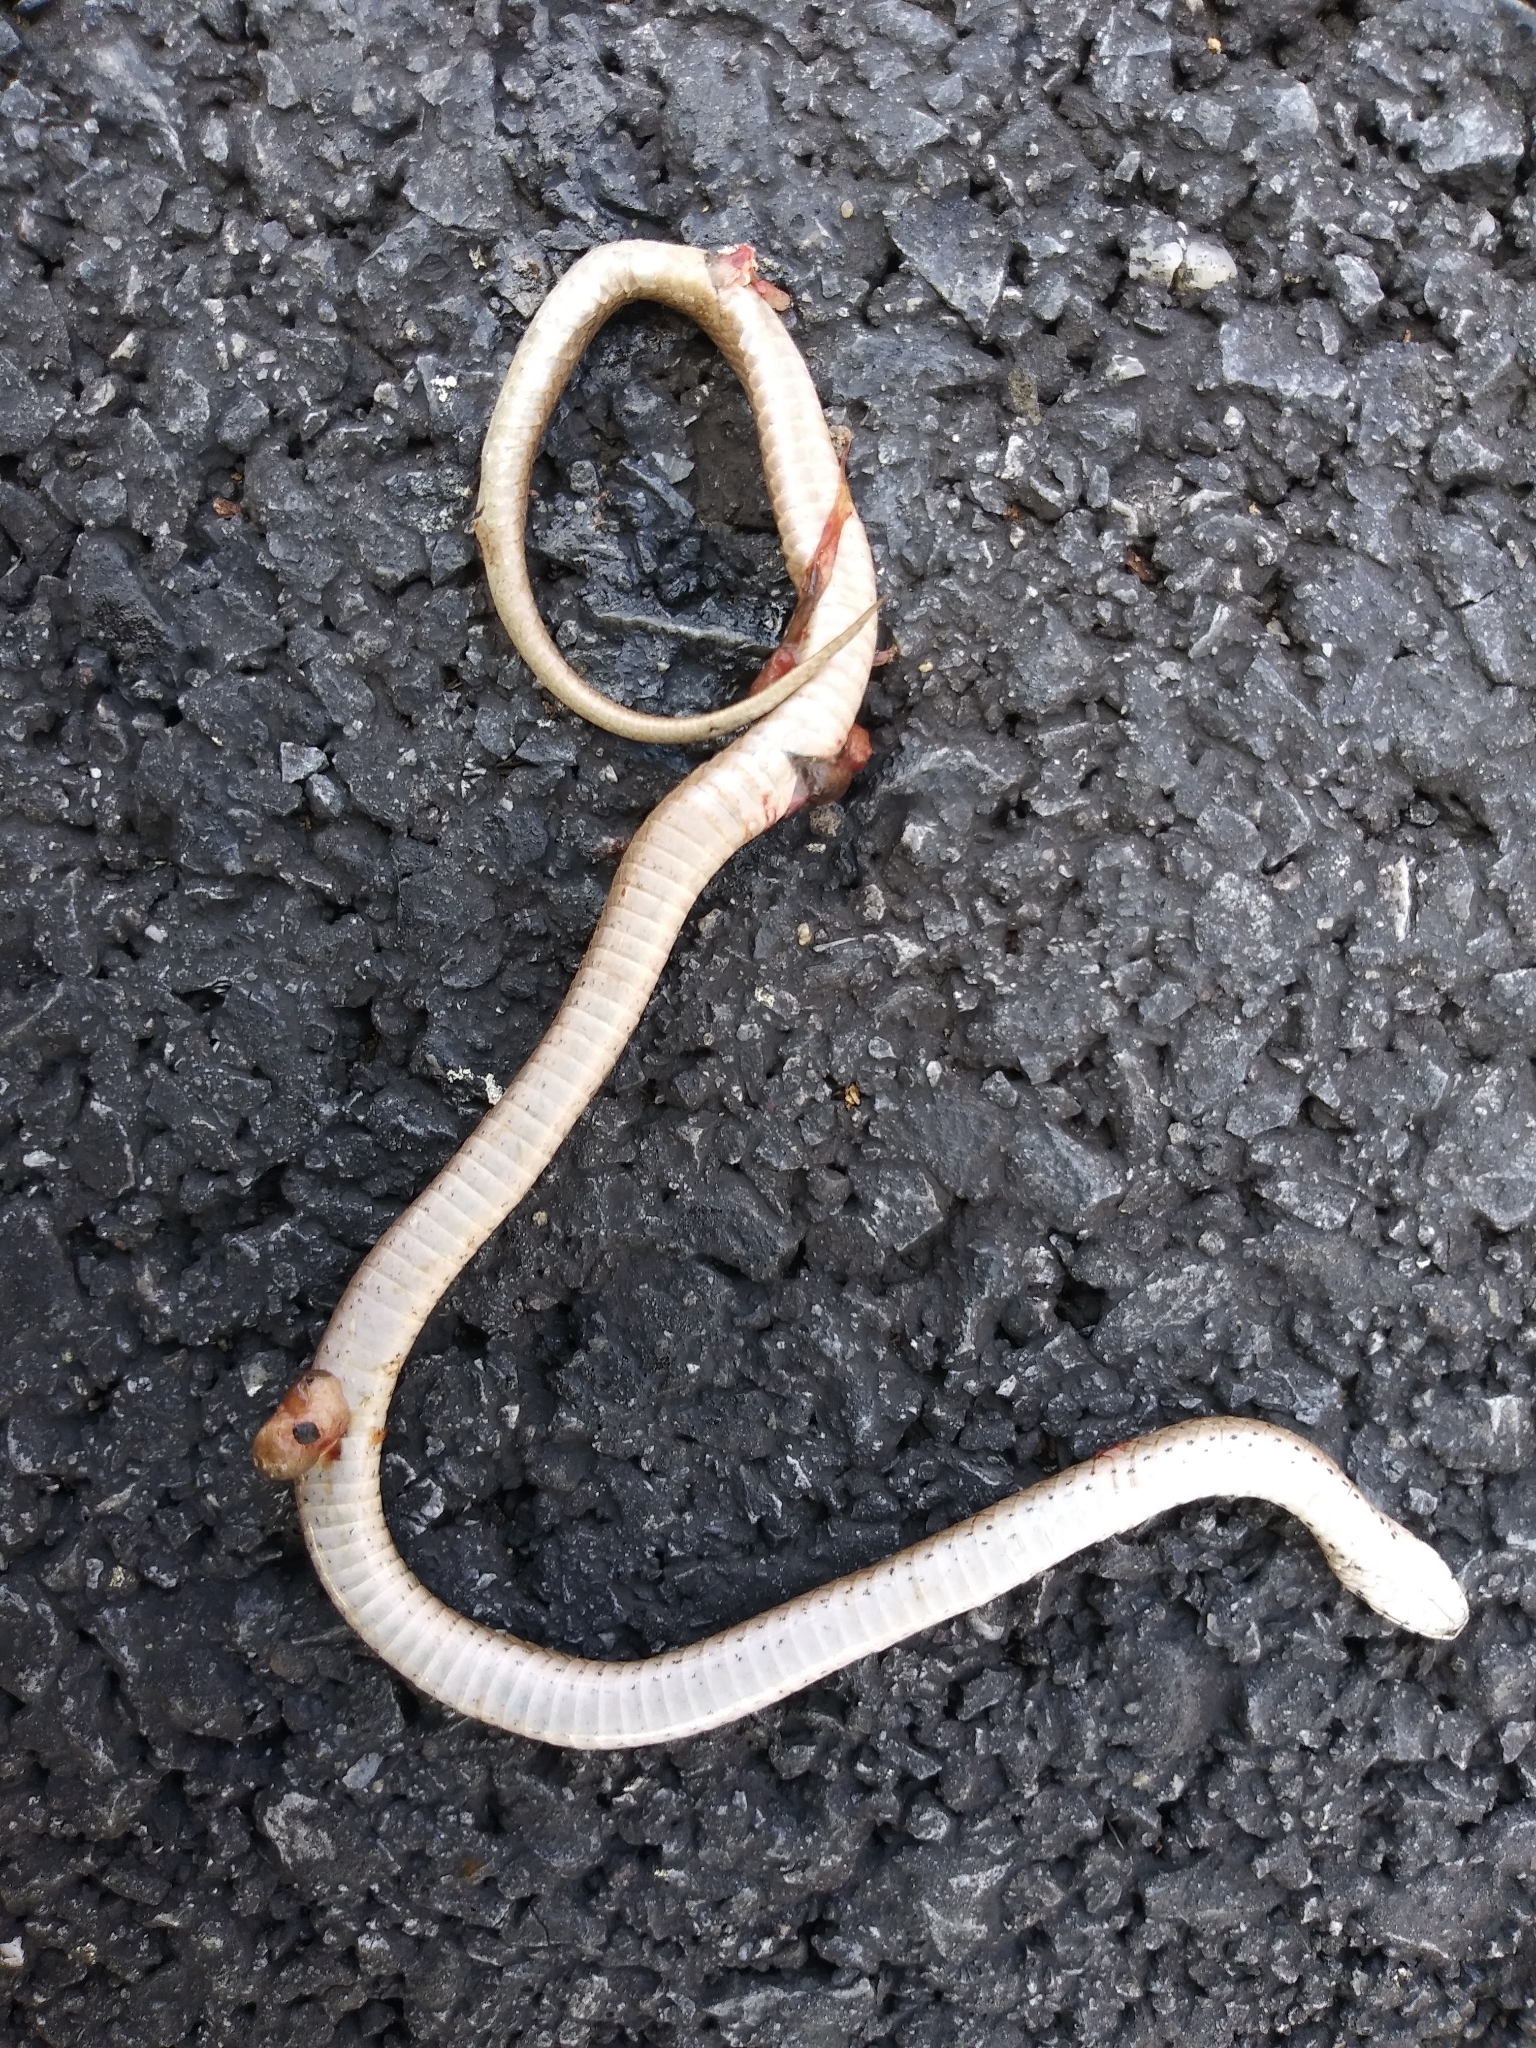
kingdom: Animalia
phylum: Chordata
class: Squamata
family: Colubridae
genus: Storeria
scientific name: Storeria dekayi
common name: (dekay’s) brown snake
